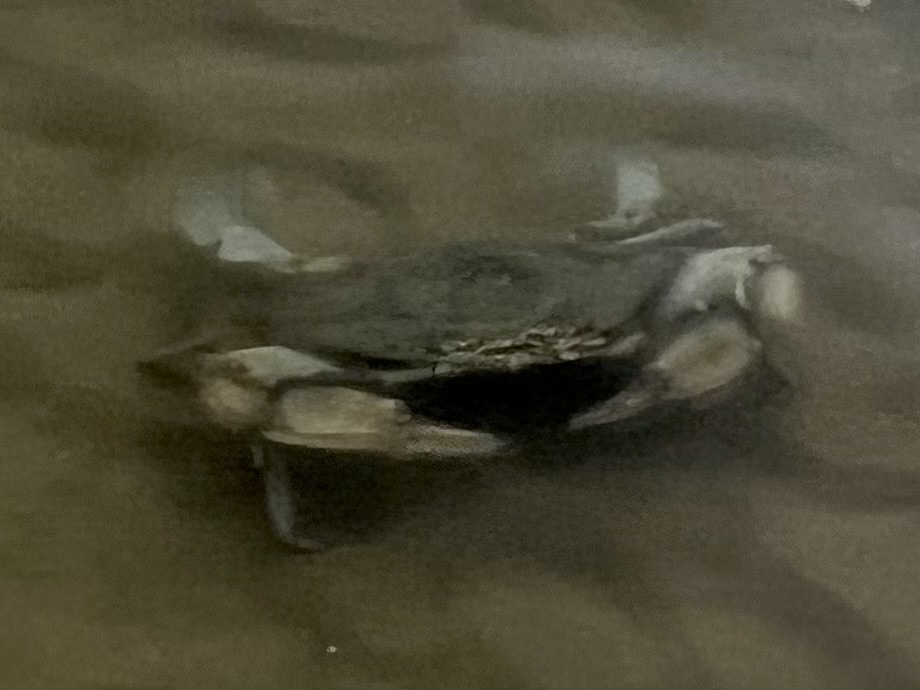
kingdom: Animalia
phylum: Arthropoda
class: Malacostraca
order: Decapoda
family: Portunidae
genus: Callinectes
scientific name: Callinectes sapidus
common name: Blue crab
